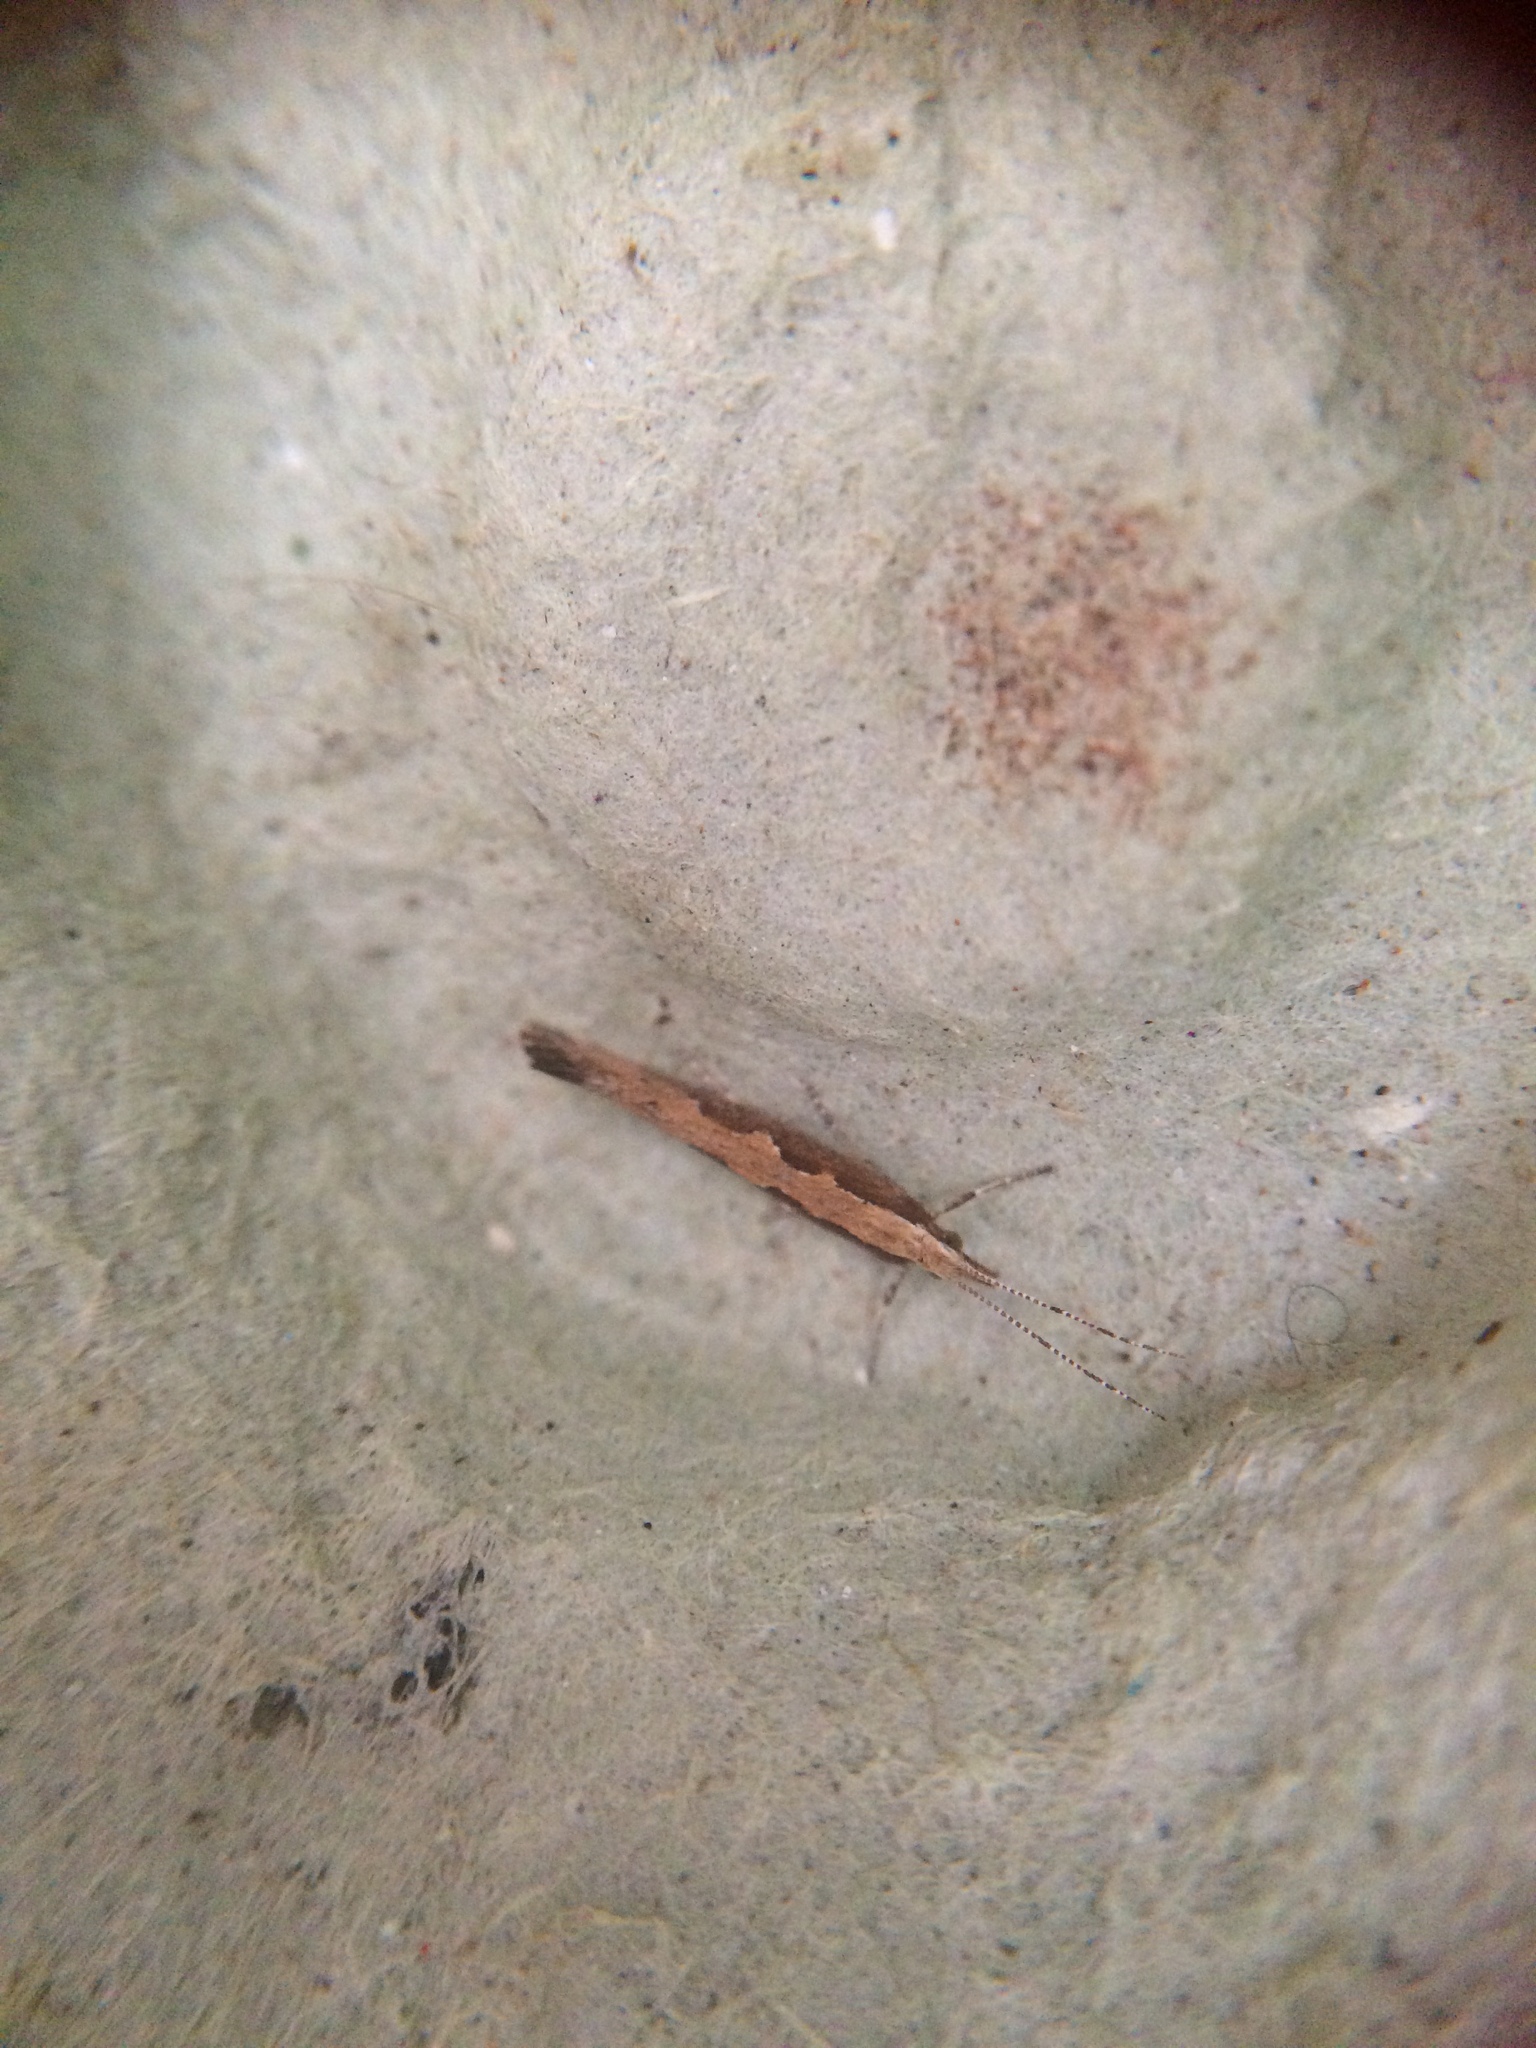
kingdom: Animalia
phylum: Arthropoda
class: Insecta
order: Lepidoptera
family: Plutellidae
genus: Plutella
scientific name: Plutella xylostella
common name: Diamond-back moth
